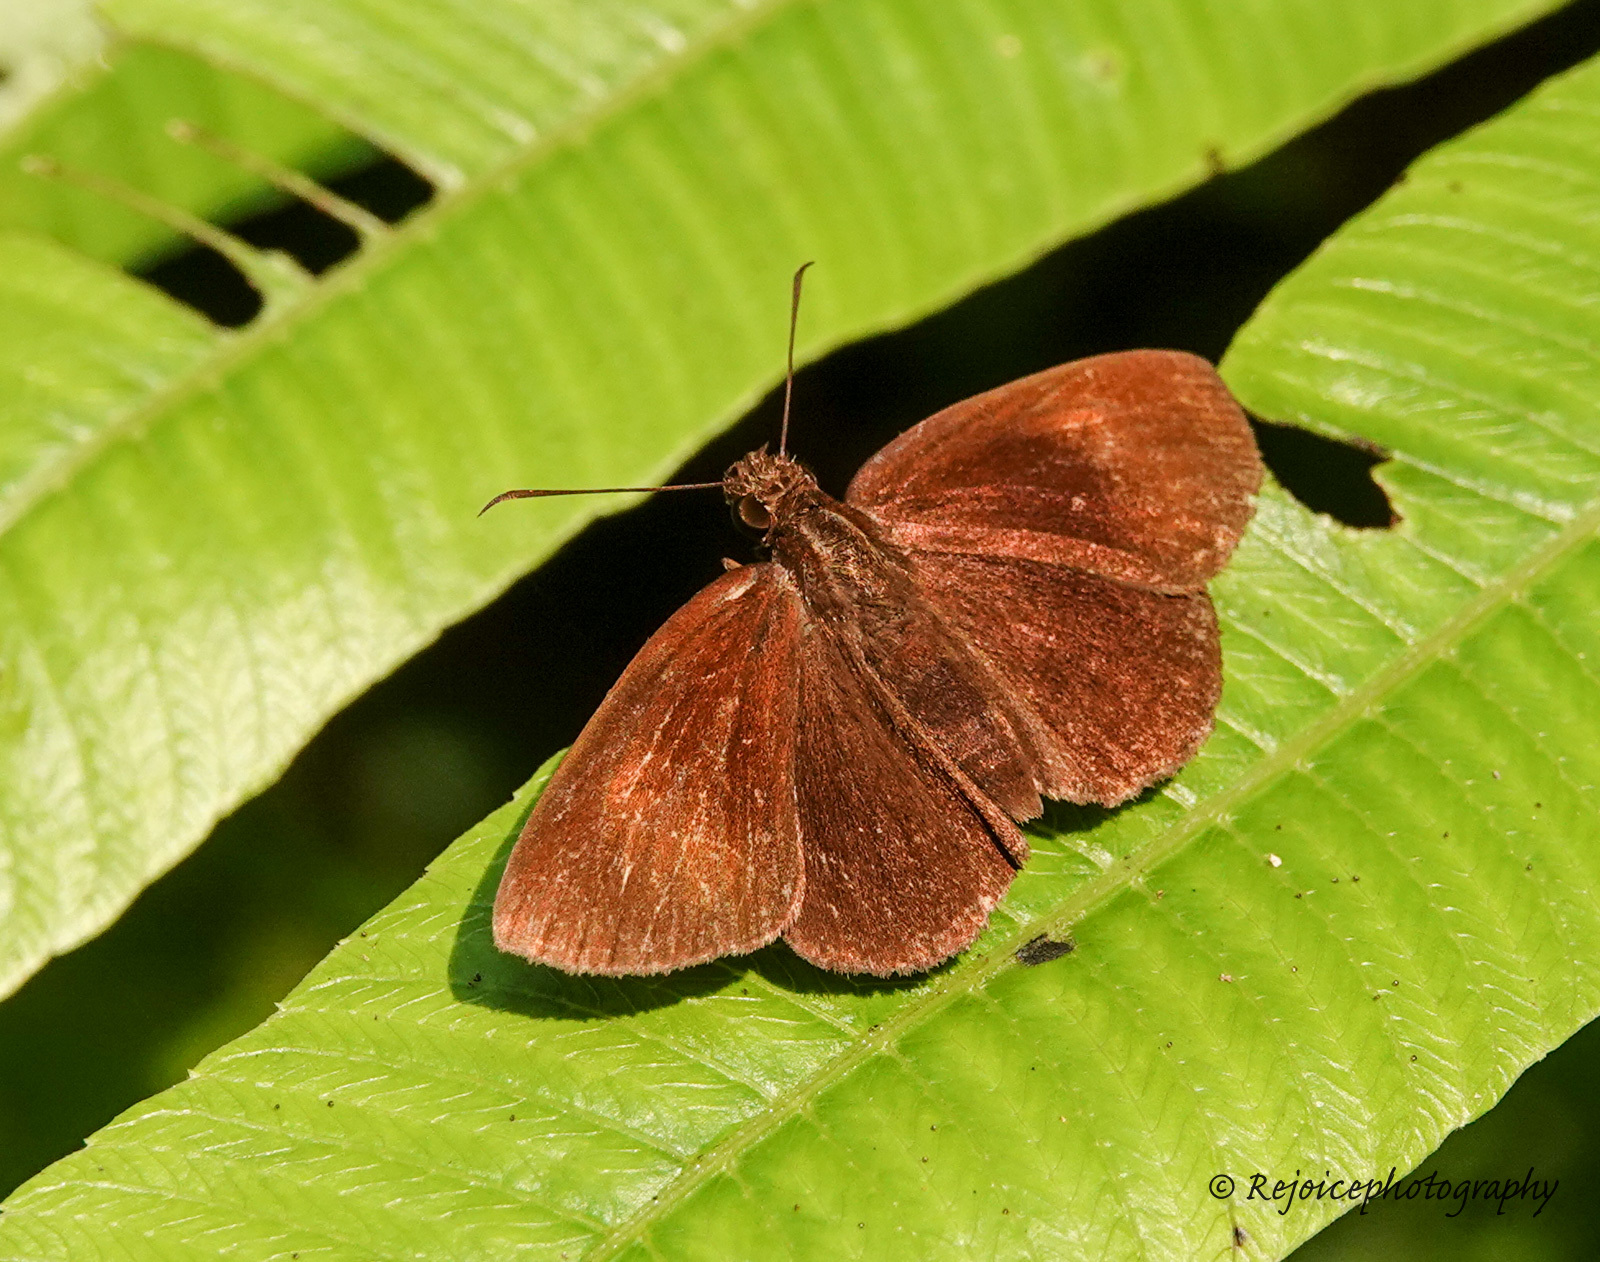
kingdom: Animalia
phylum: Arthropoda
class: Insecta
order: Lepidoptera
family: Hesperiidae
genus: Koruthaialos
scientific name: Koruthaialos butleri
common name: Dark velvet bob
